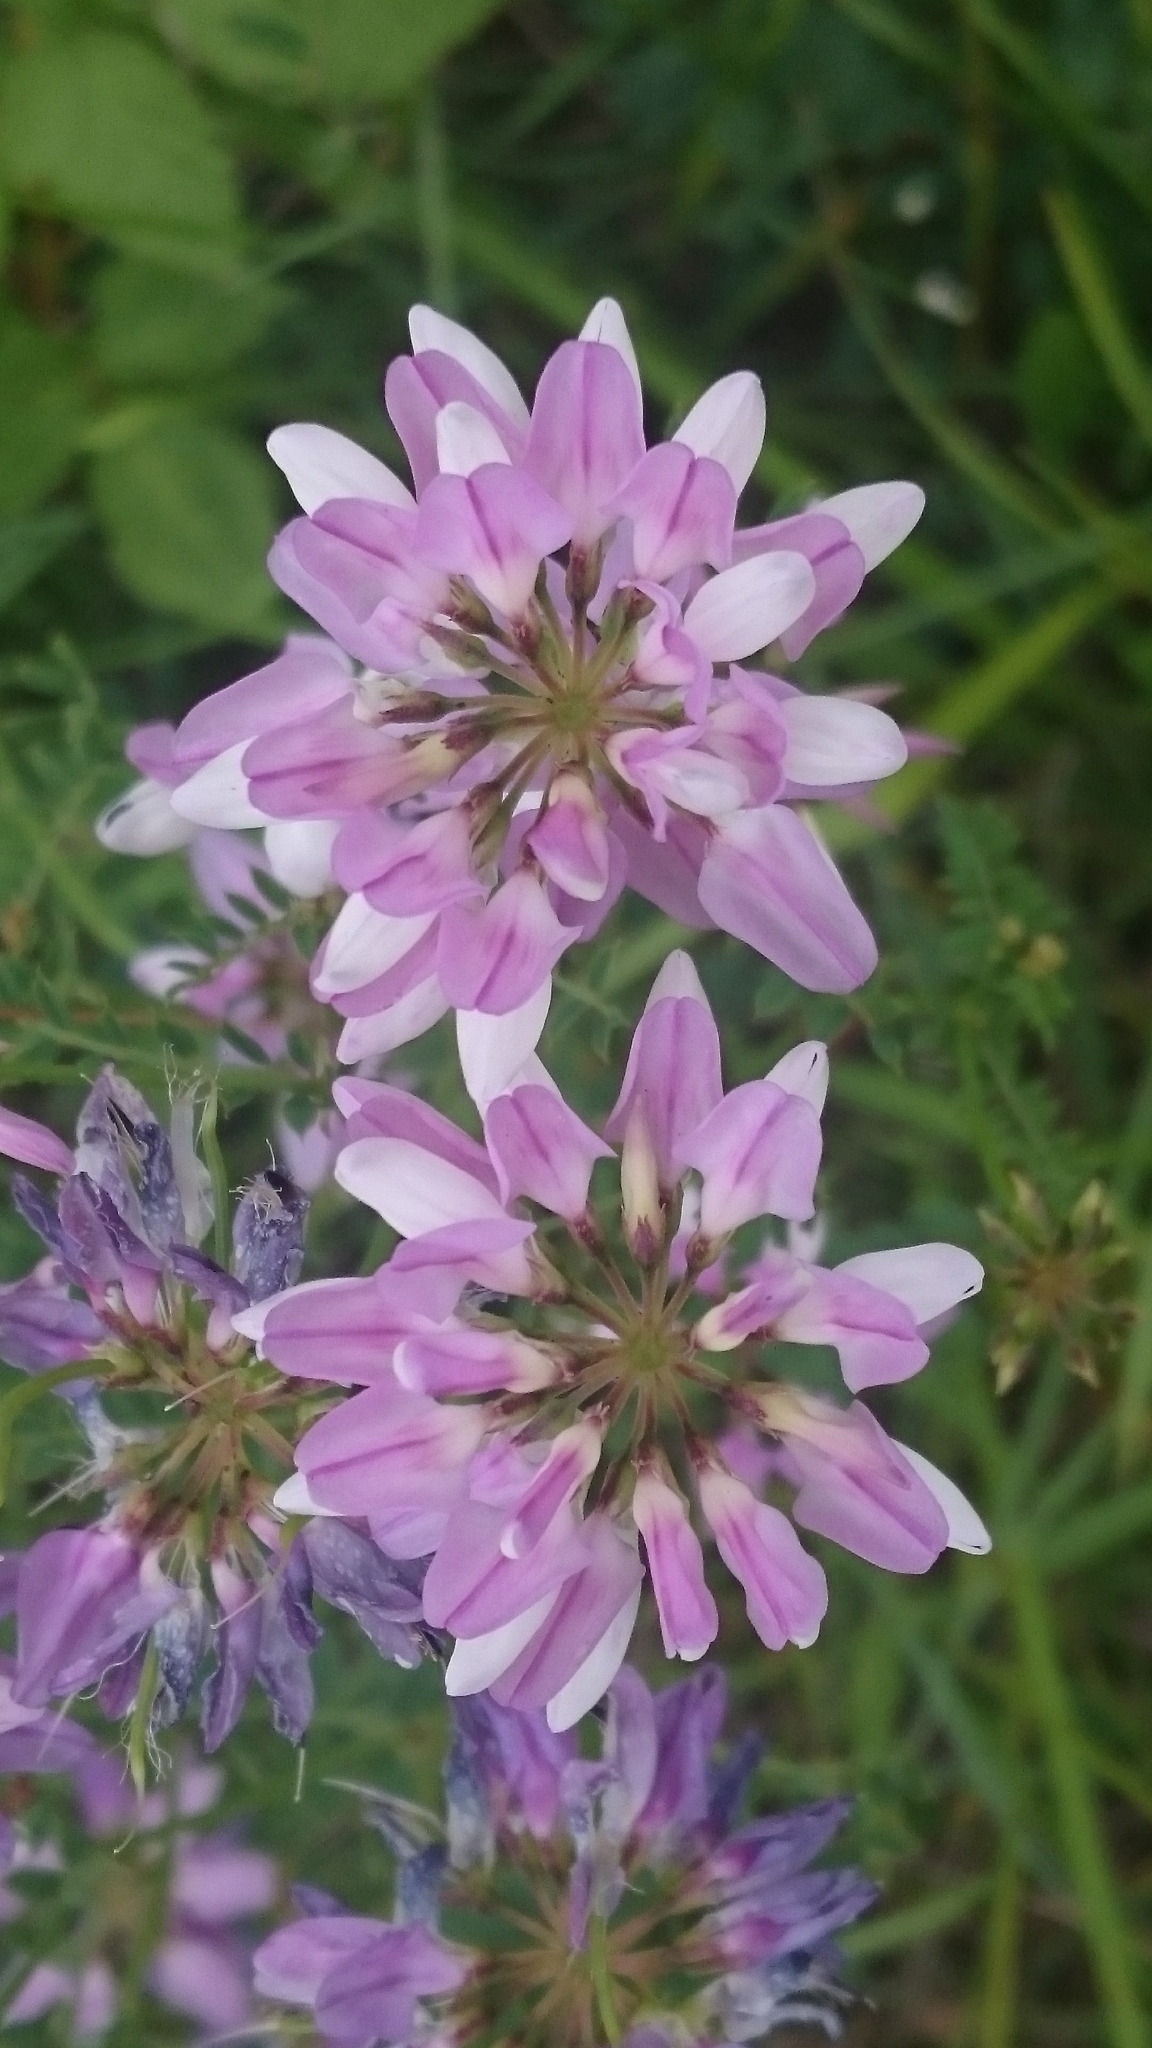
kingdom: Plantae
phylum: Tracheophyta
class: Magnoliopsida
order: Fabales
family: Fabaceae
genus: Coronilla
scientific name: Coronilla varia
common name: Crownvetch
